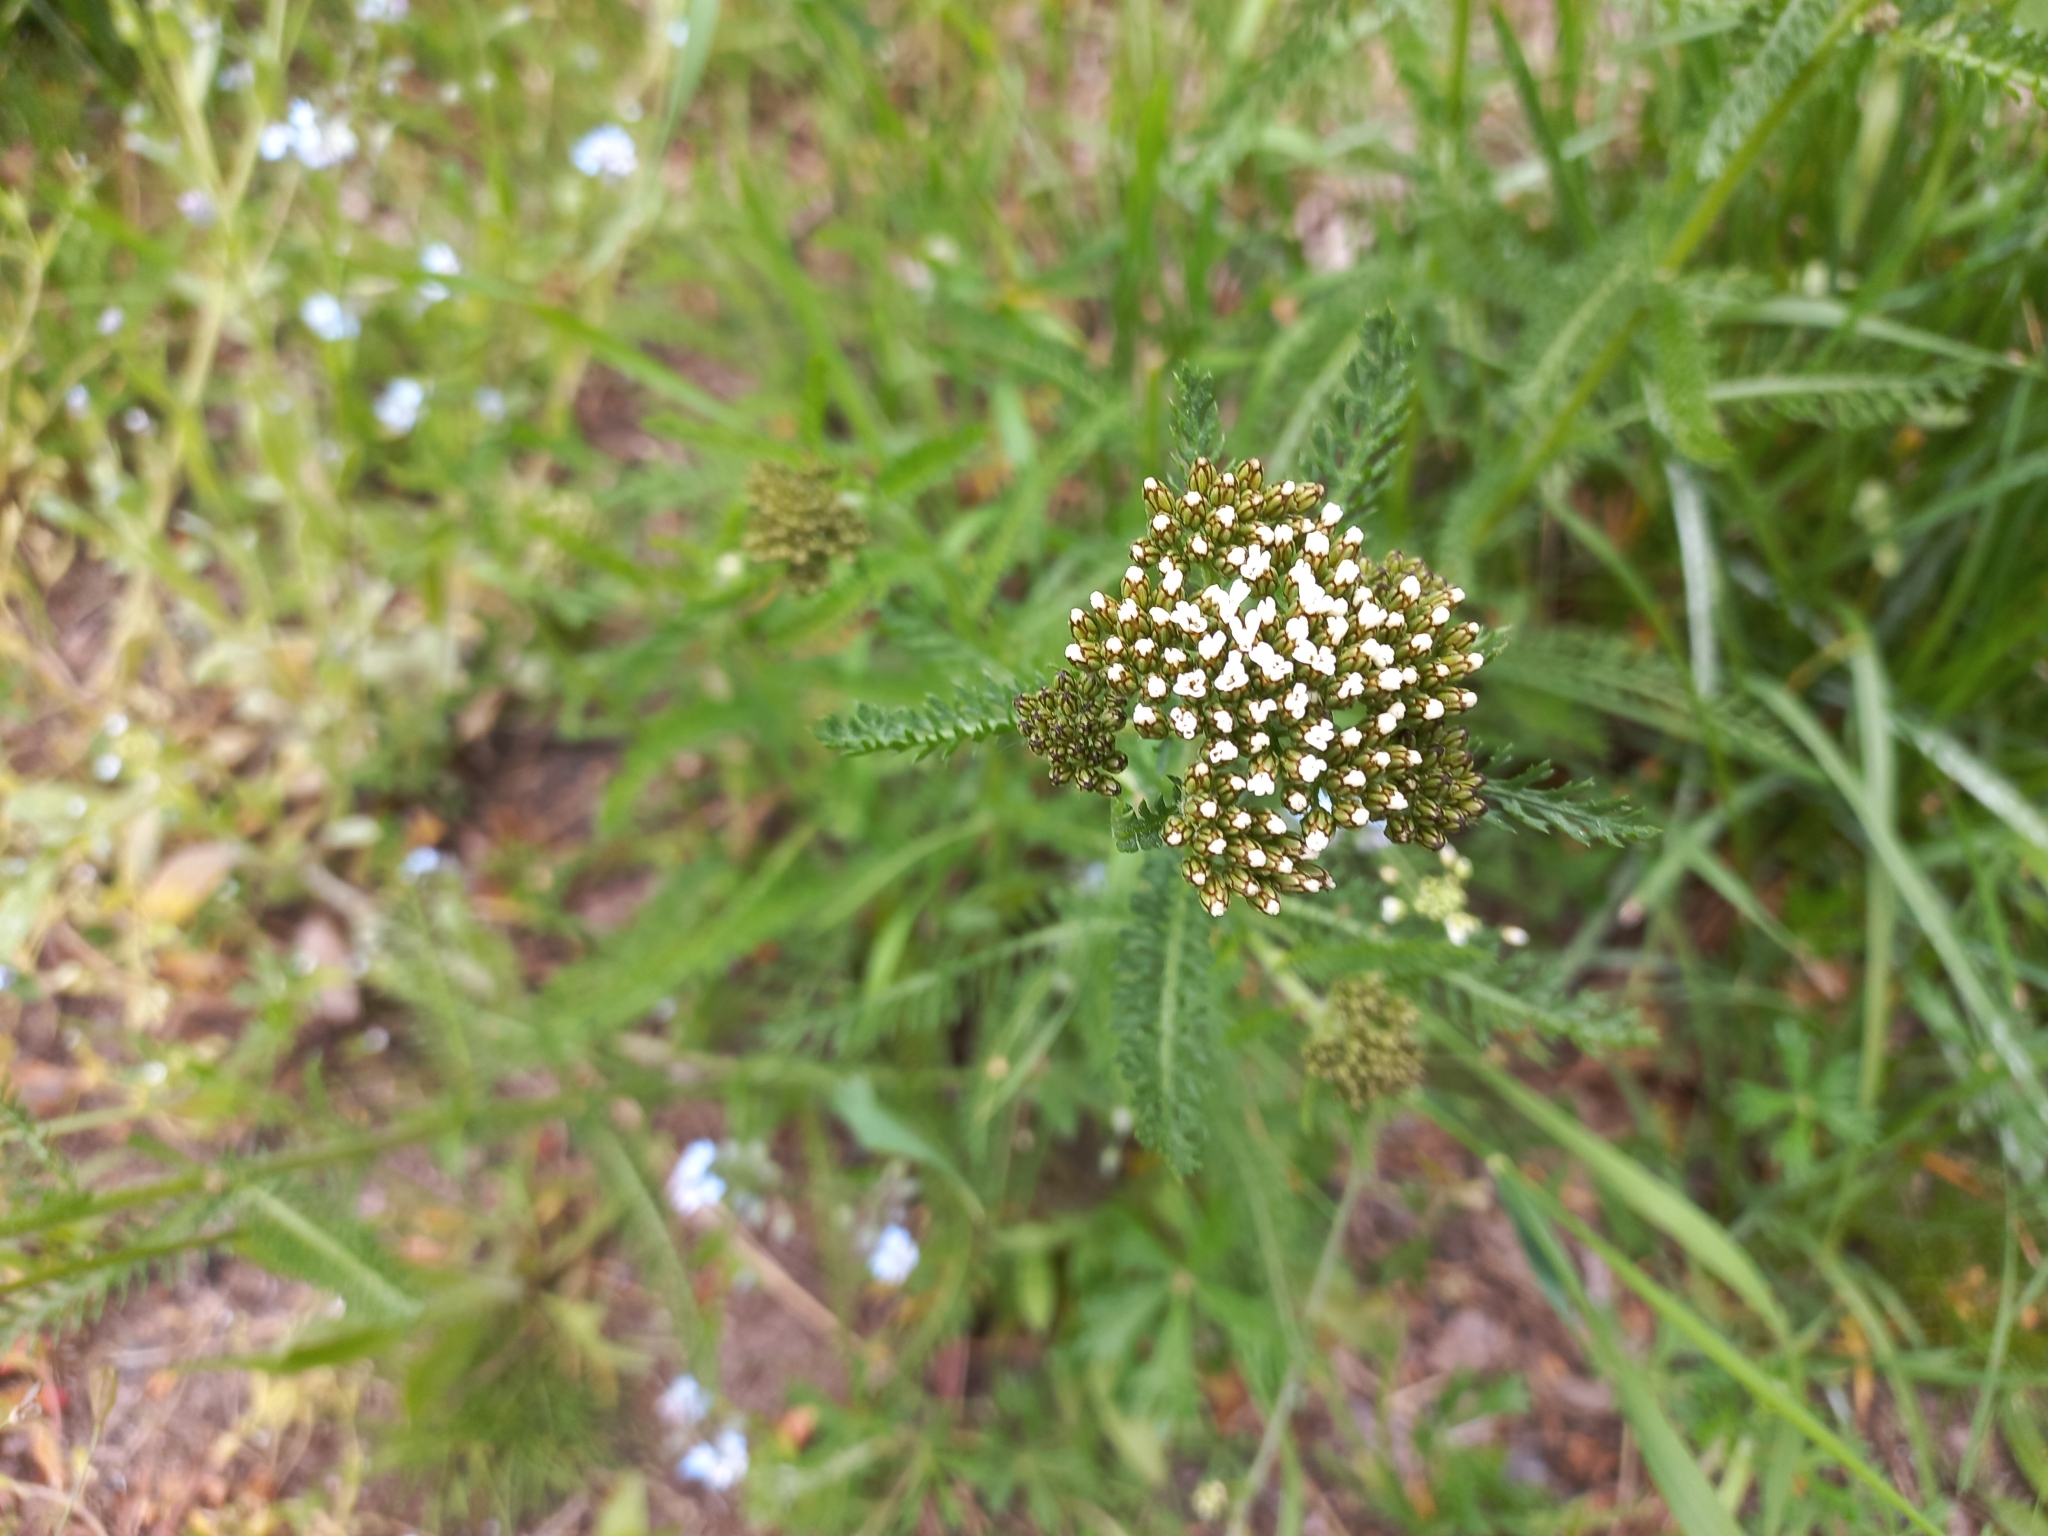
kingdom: Plantae
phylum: Tracheophyta
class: Magnoliopsida
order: Asterales
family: Asteraceae
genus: Achillea
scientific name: Achillea millefolium
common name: Yarrow
